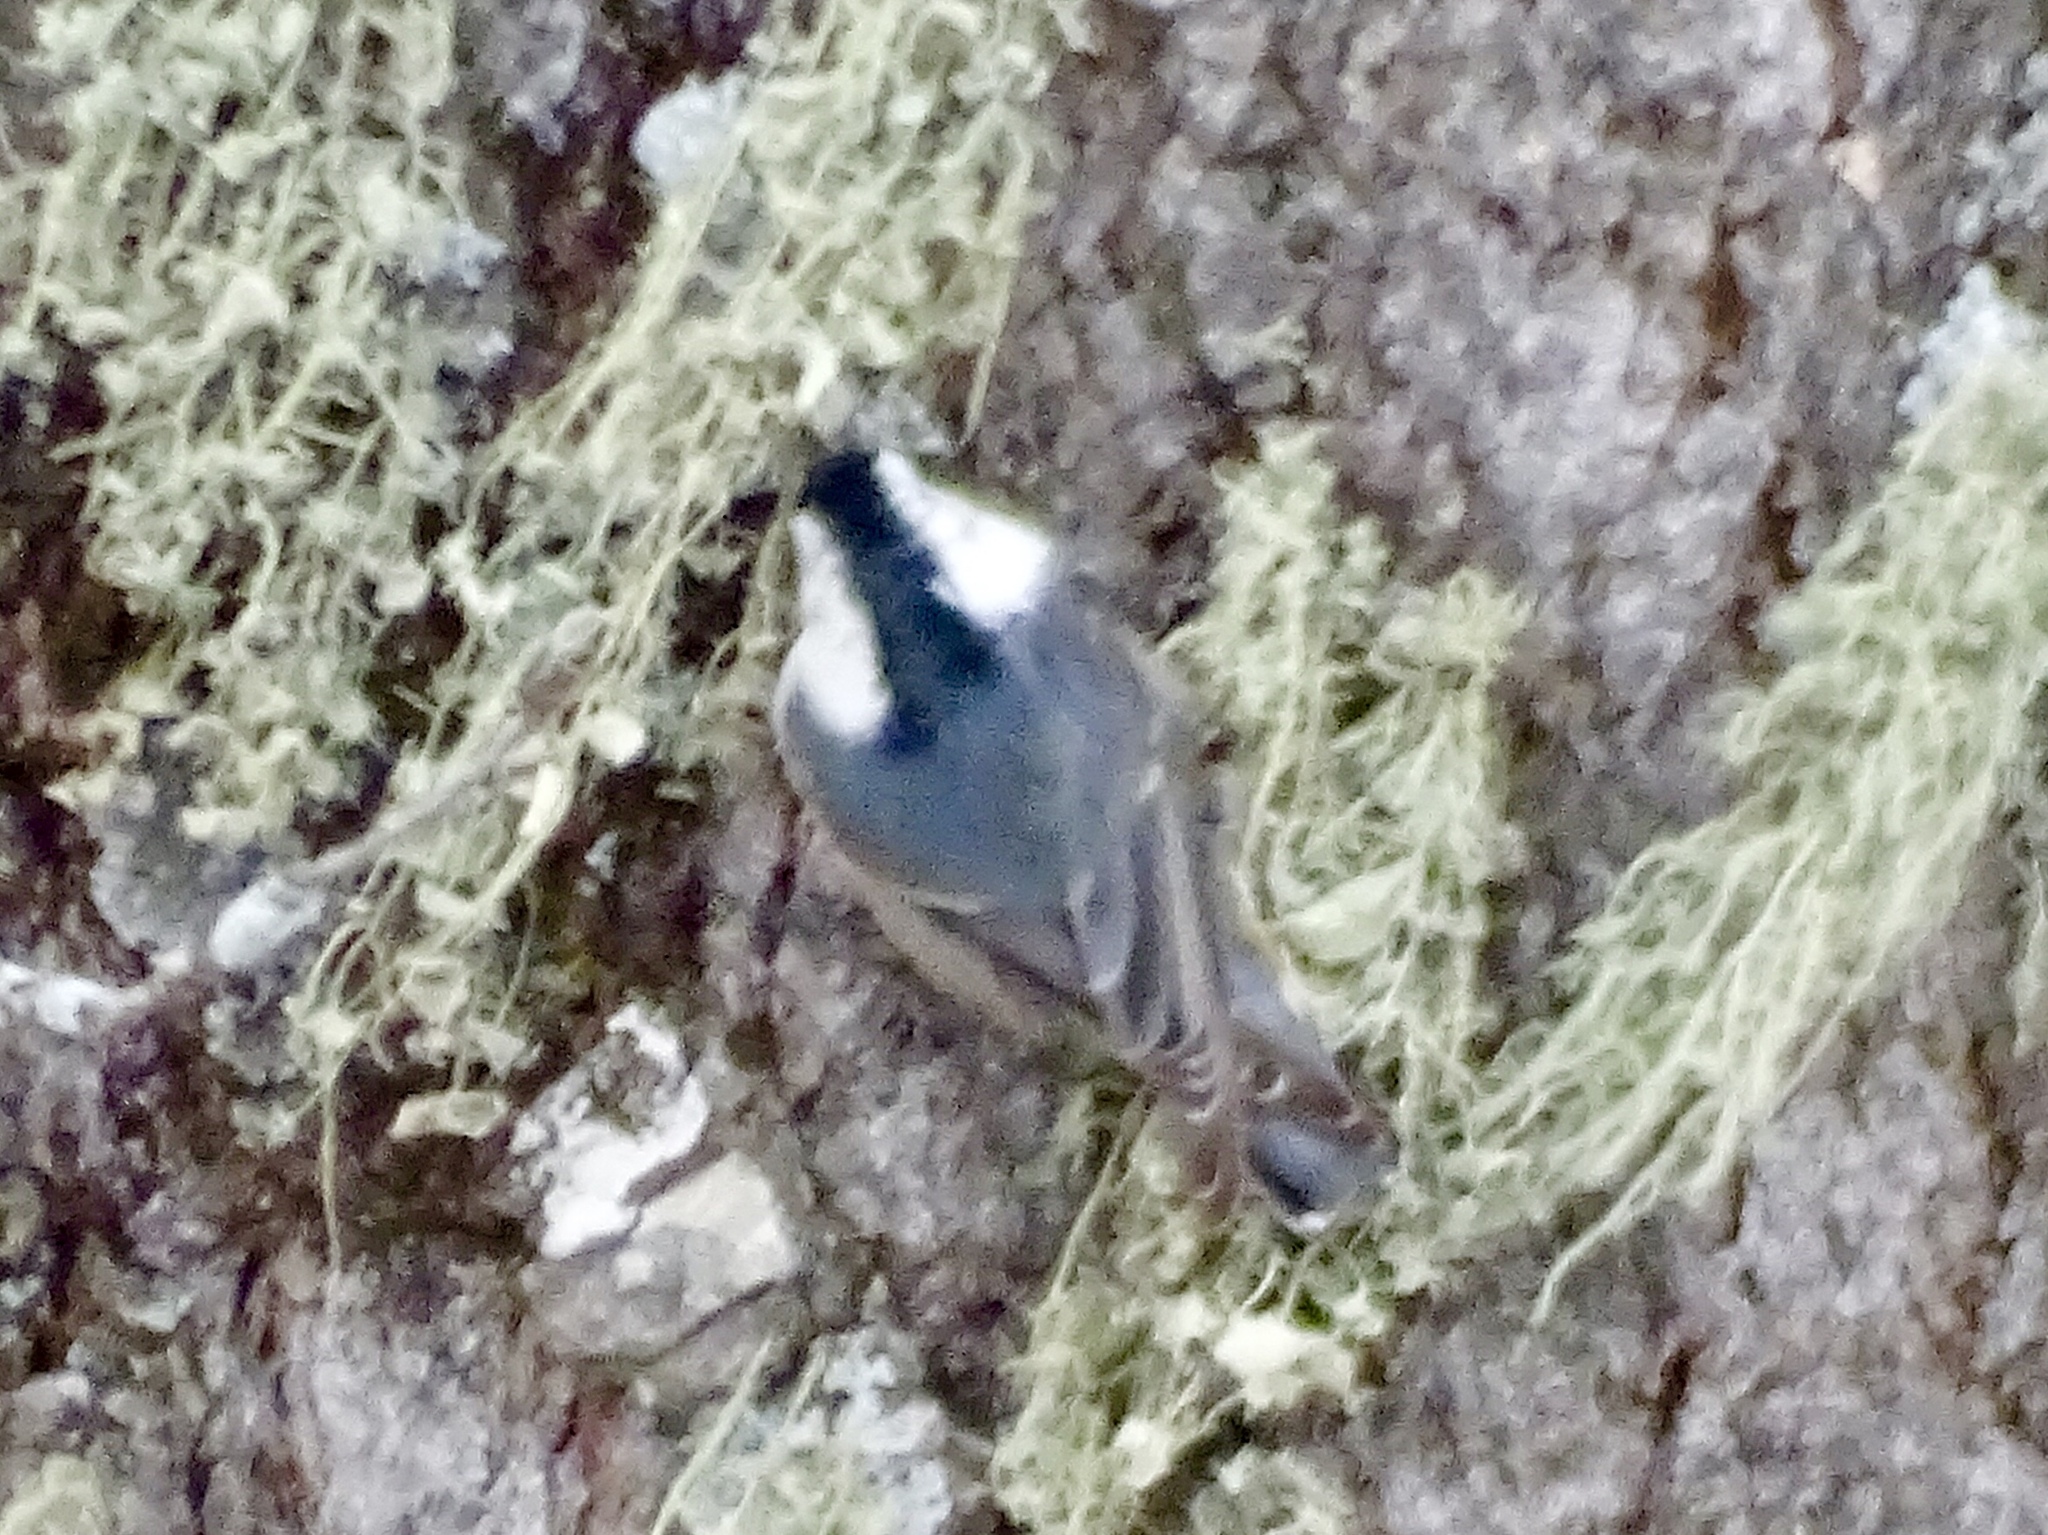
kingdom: Animalia
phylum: Chordata
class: Aves
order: Passeriformes
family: Sittidae
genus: Sitta
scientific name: Sitta carolinensis
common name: White-breasted nuthatch
